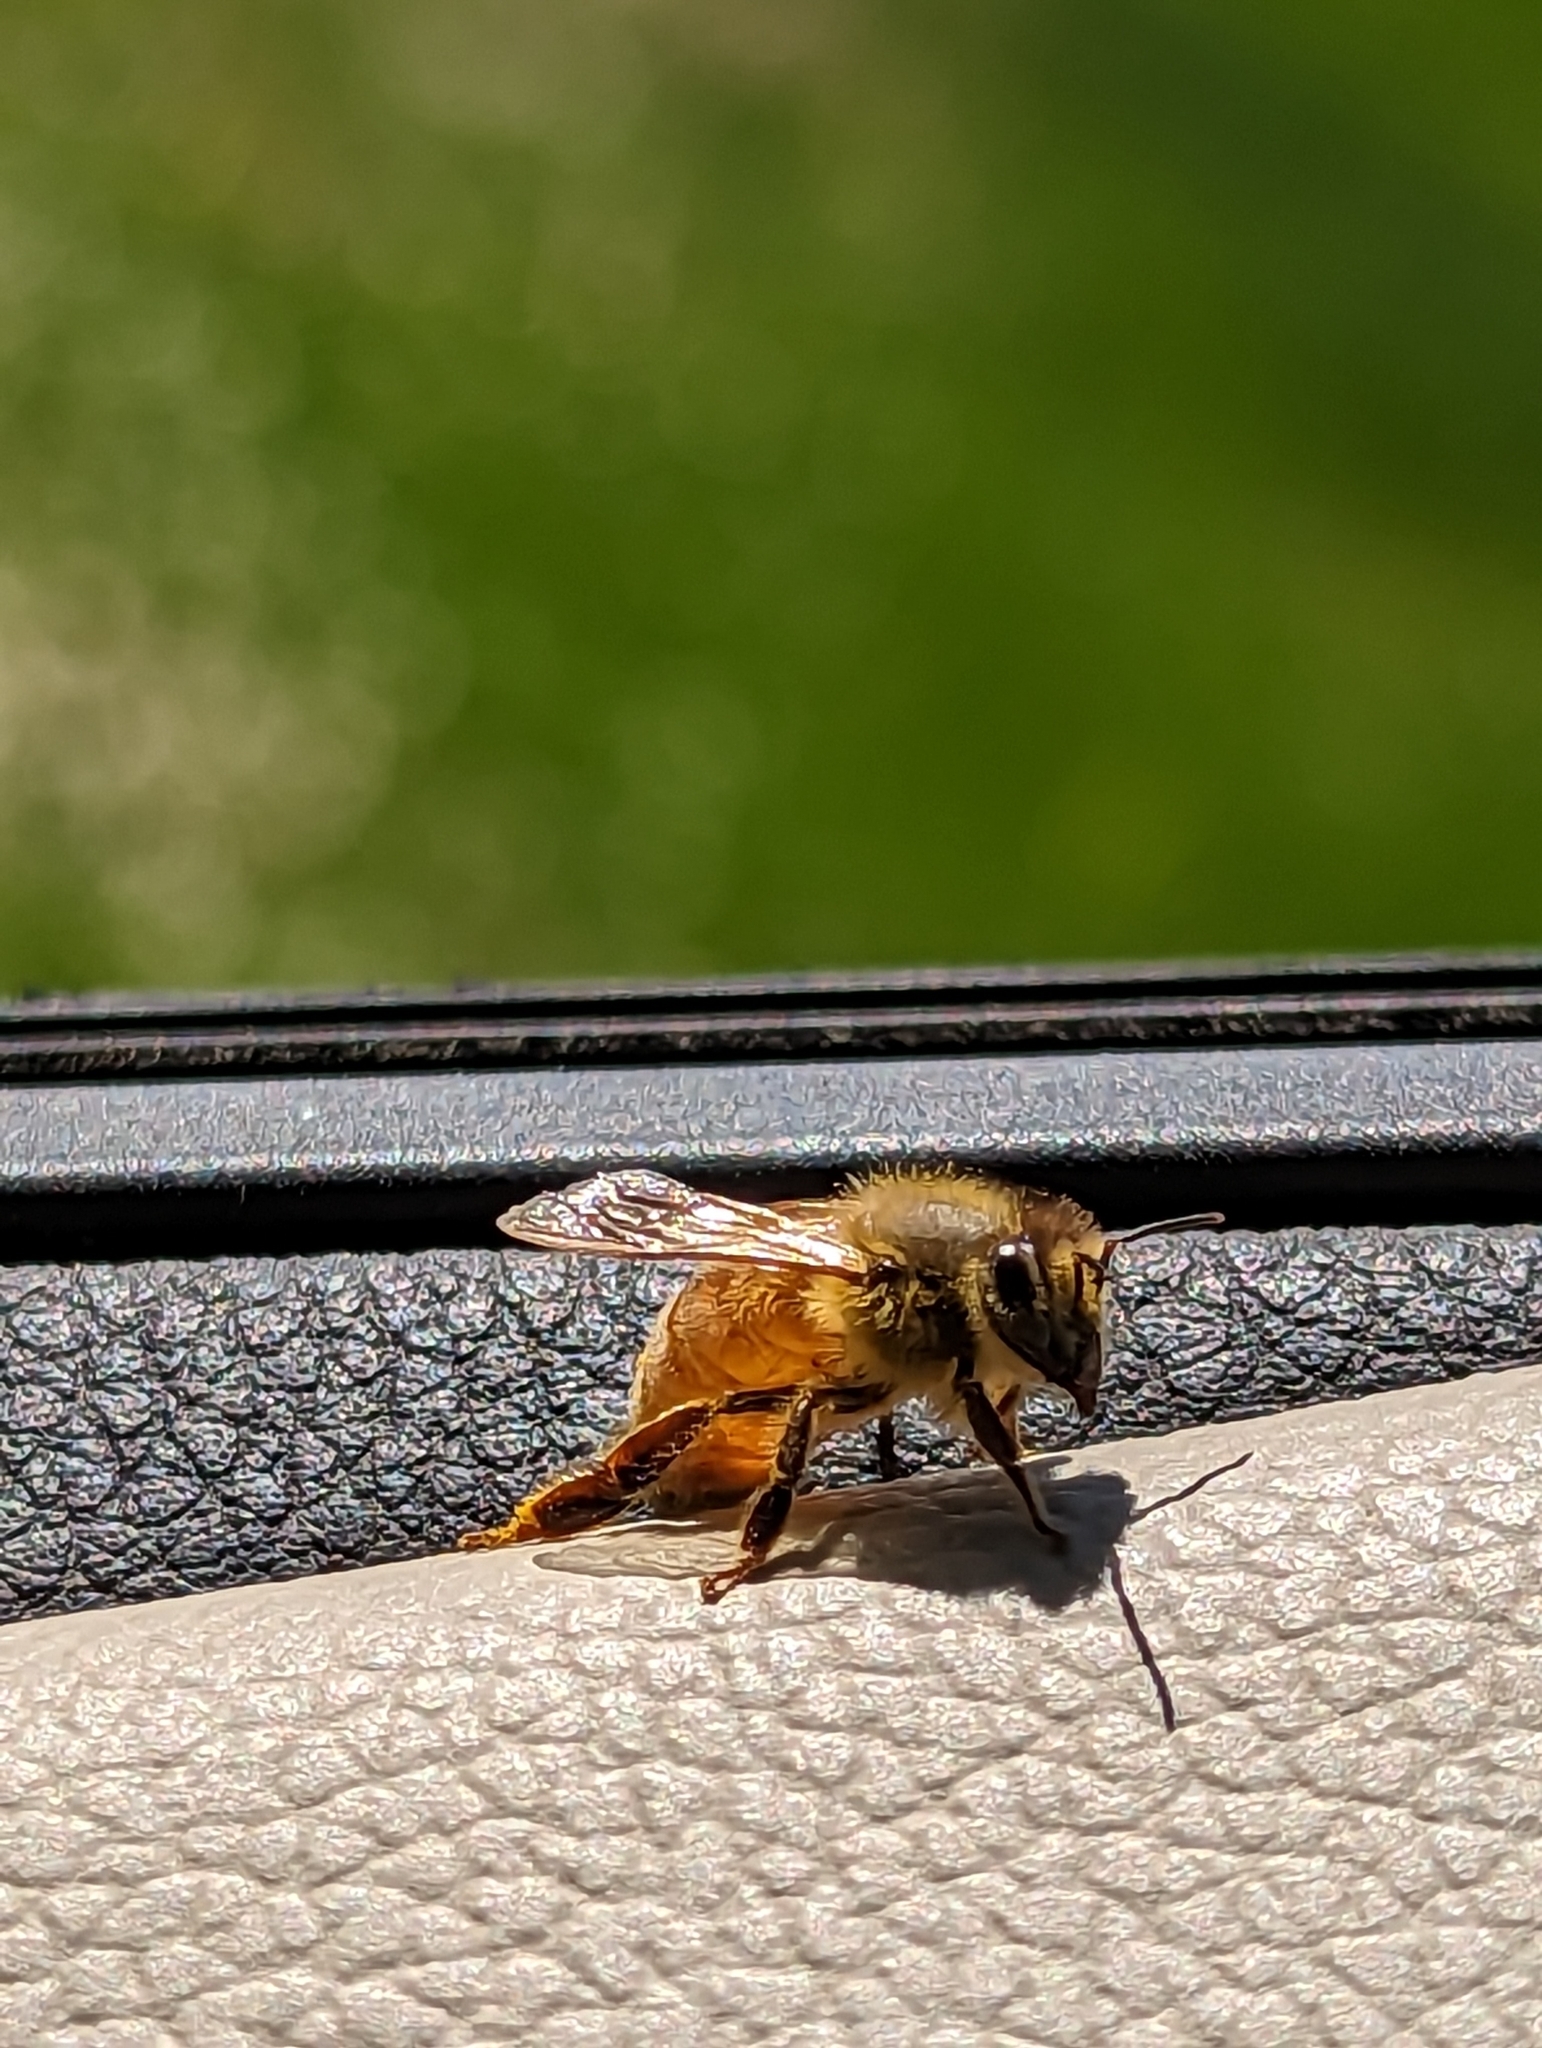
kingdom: Animalia
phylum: Arthropoda
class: Insecta
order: Hymenoptera
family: Apidae
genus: Apis
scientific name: Apis mellifera
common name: Honey bee
